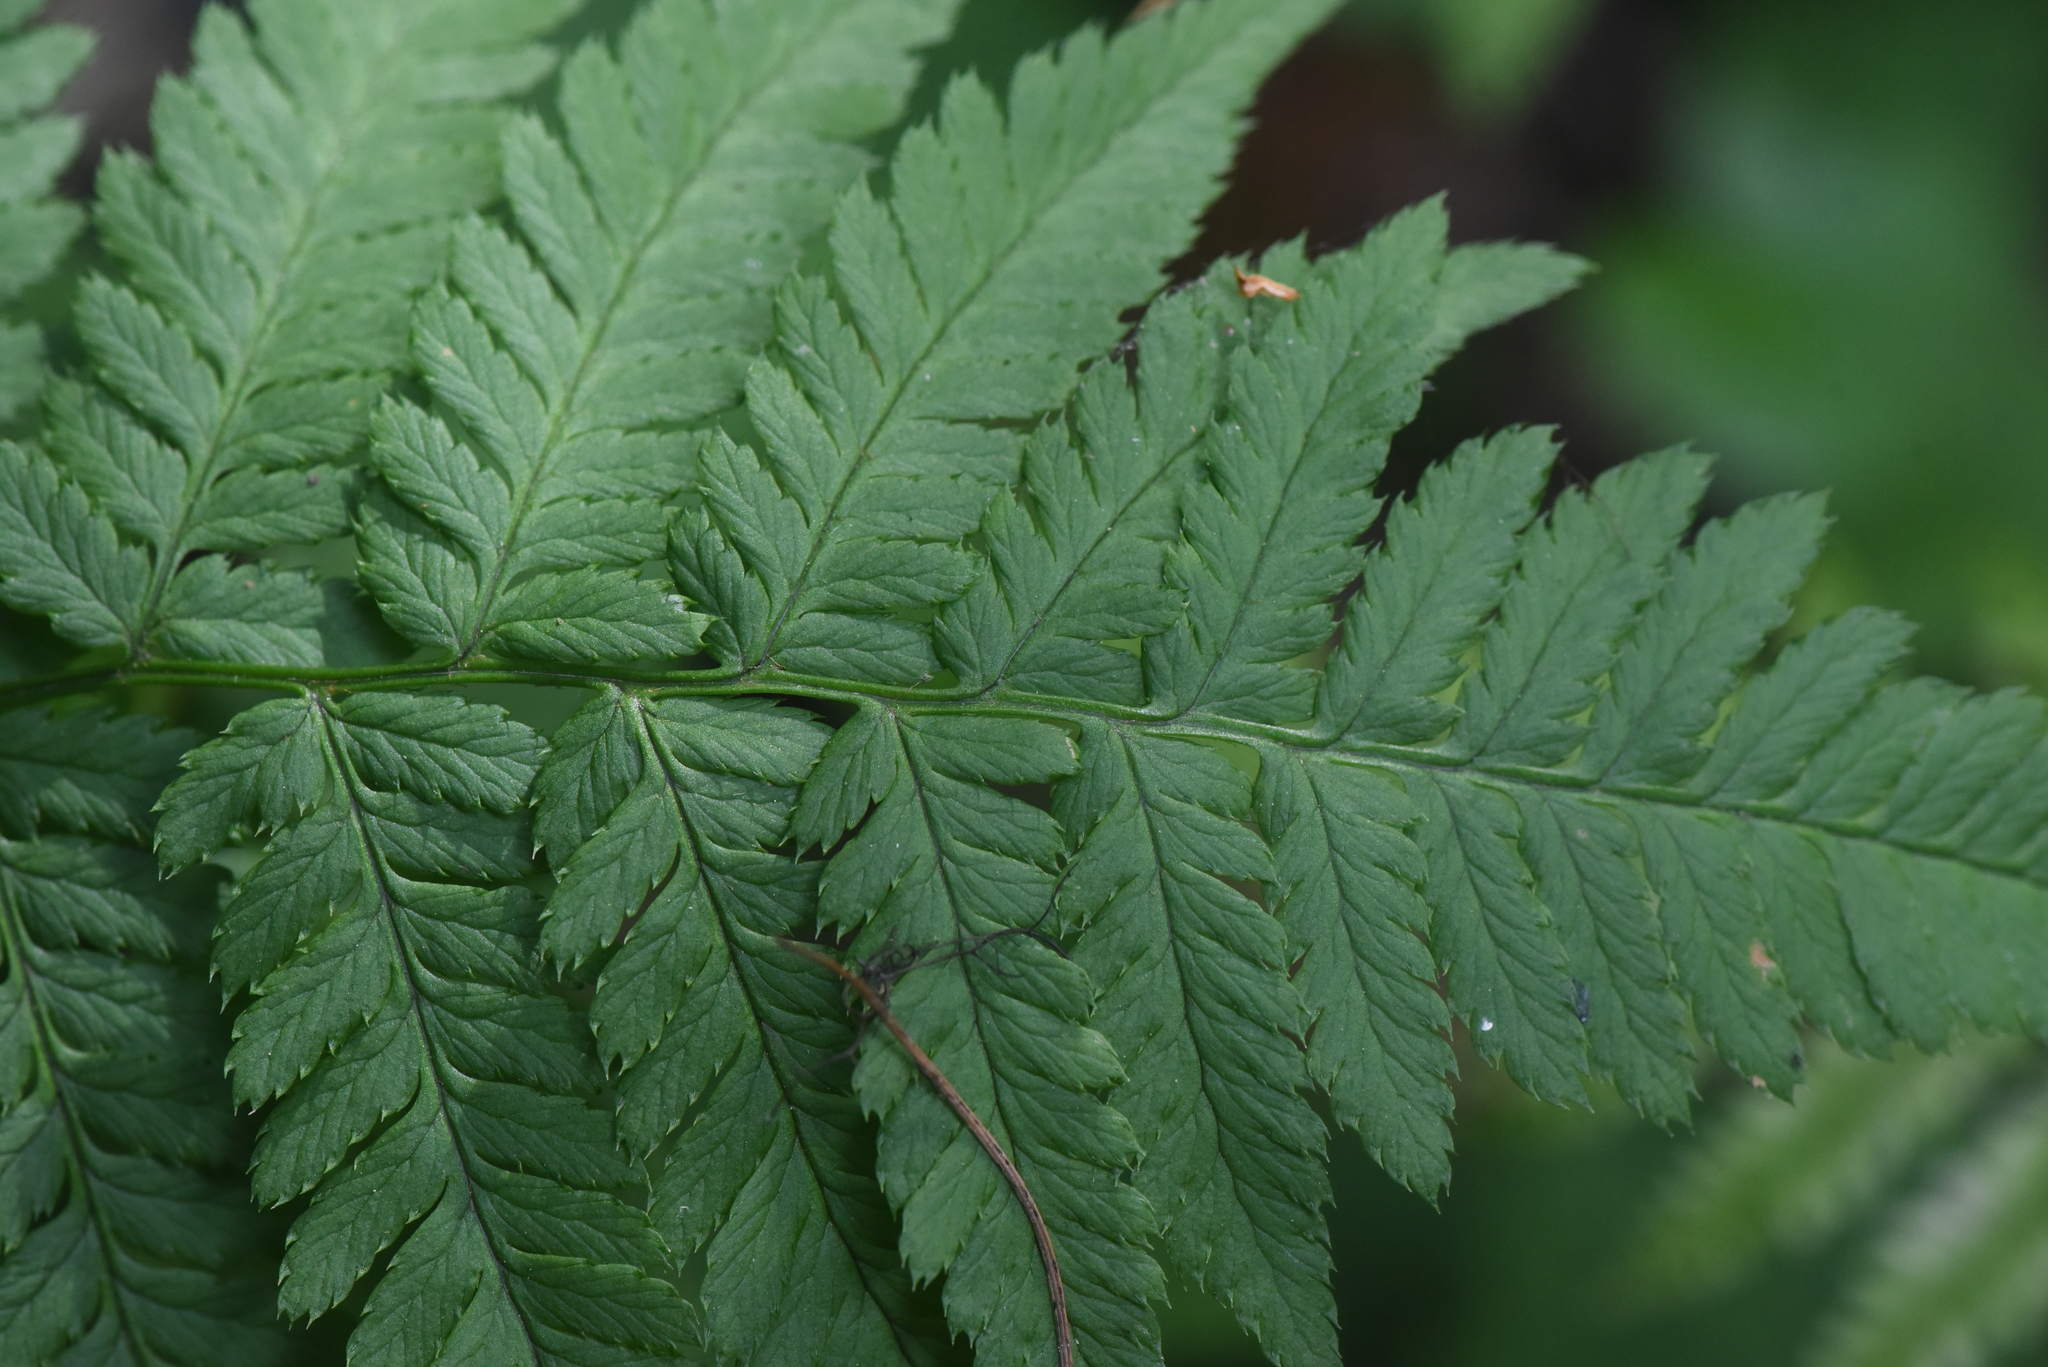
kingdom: Plantae
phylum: Tracheophyta
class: Polypodiopsida
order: Polypodiales
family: Dryopteridaceae
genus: Dryopteris
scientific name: Dryopteris carthusiana
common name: Narrow buckler-fern
